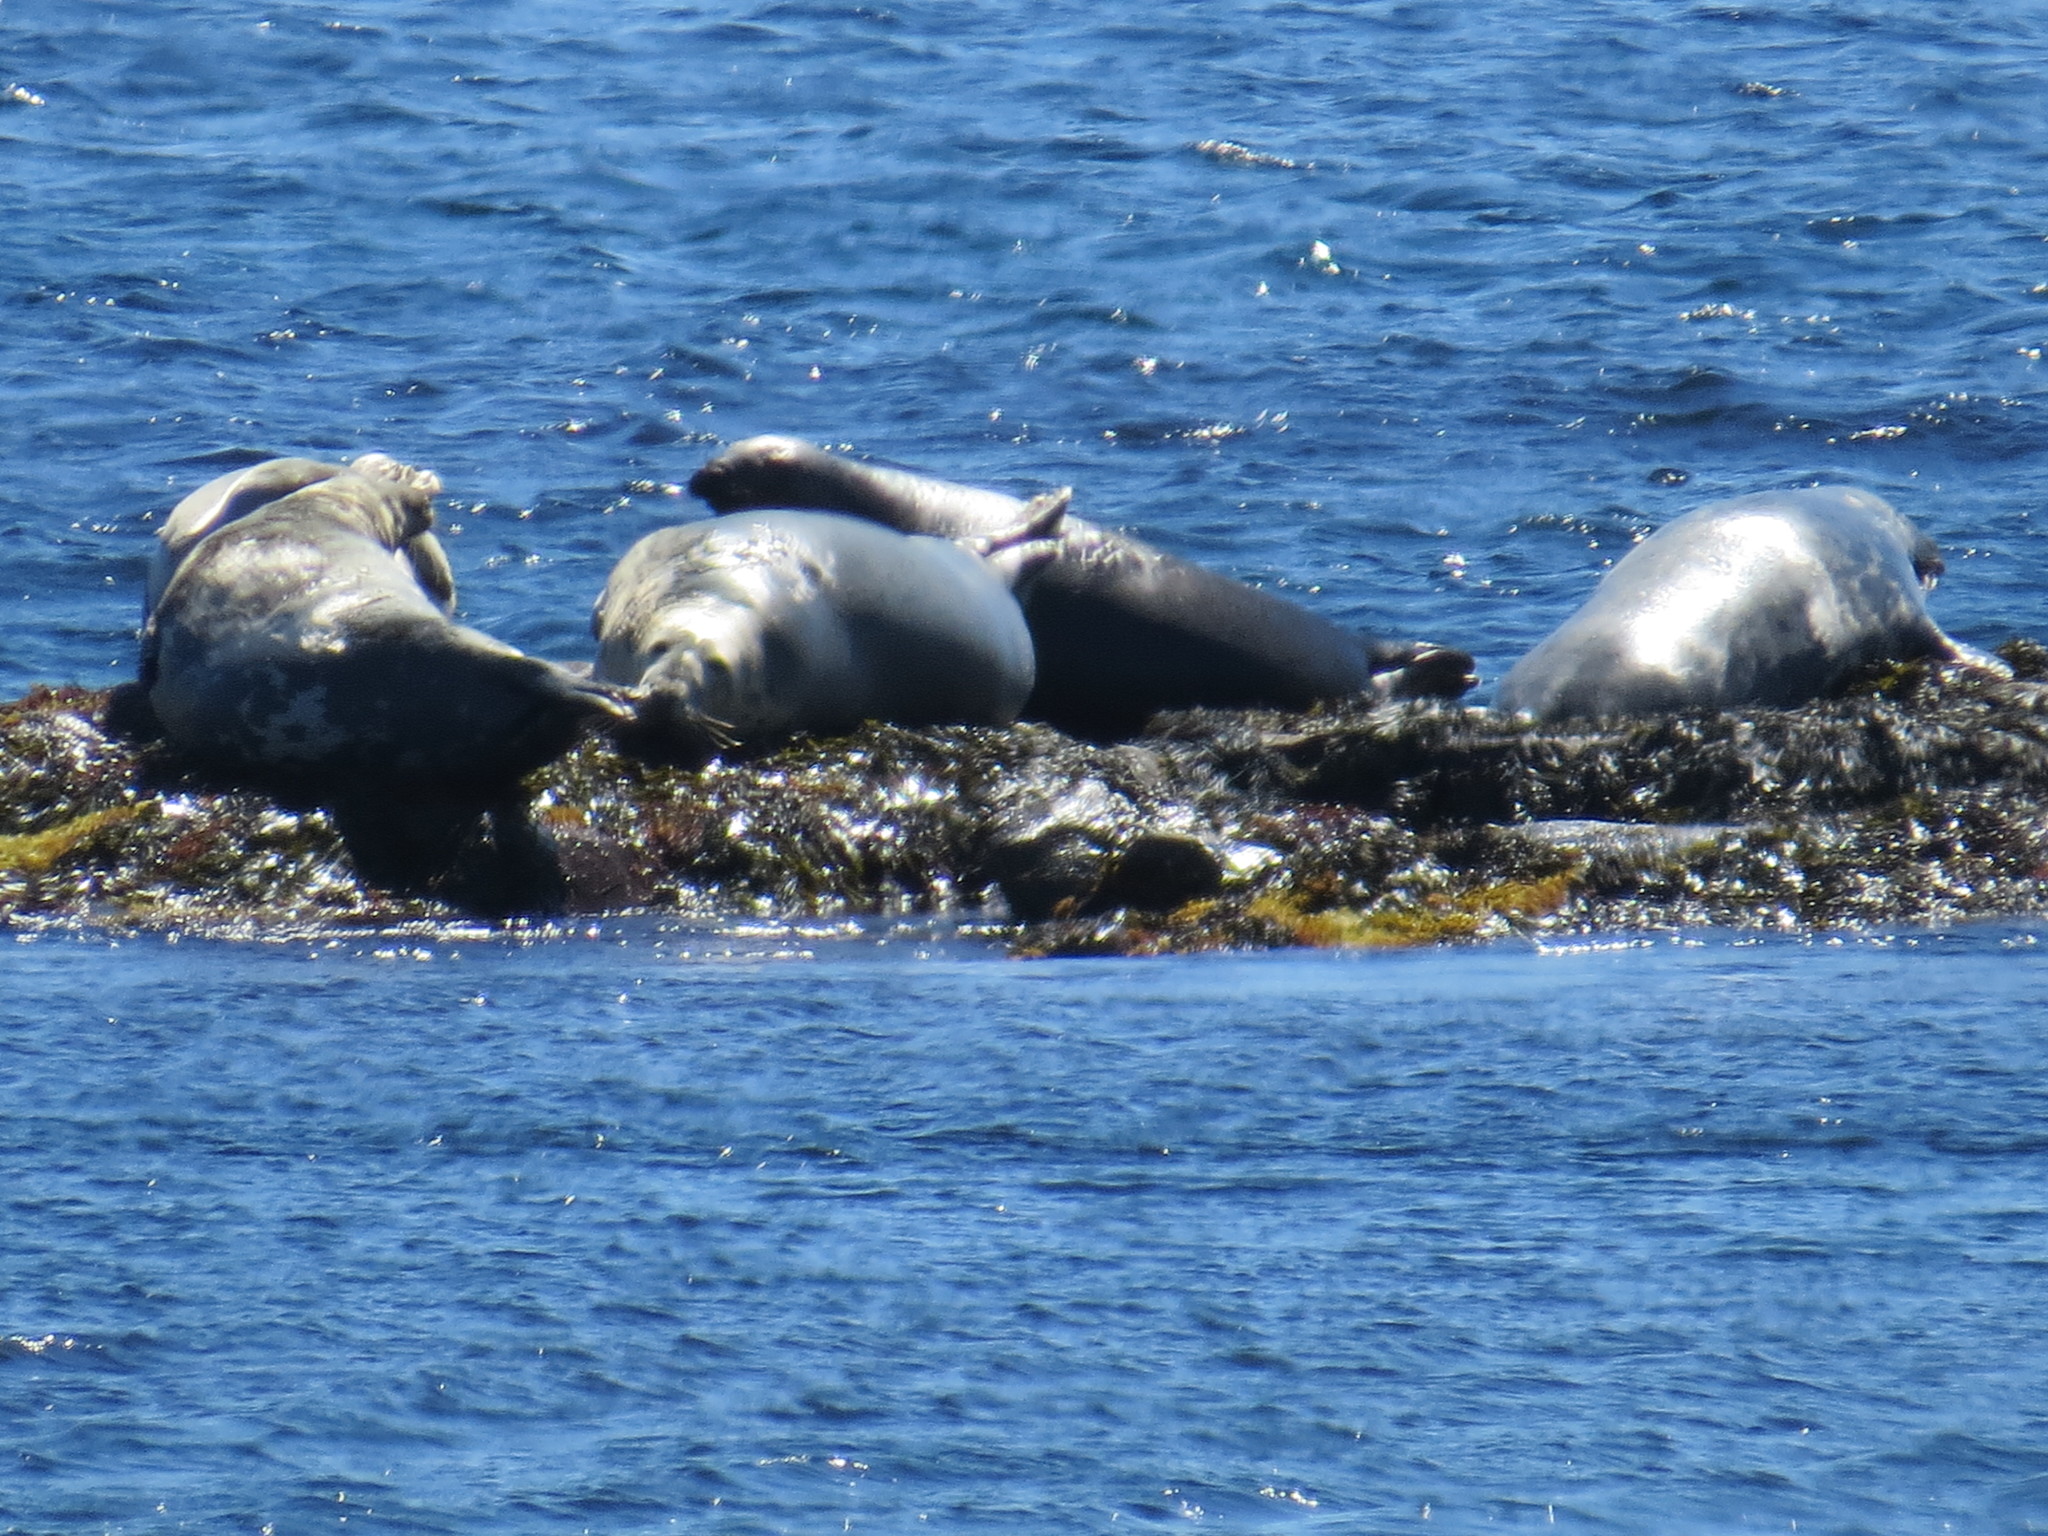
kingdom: Animalia
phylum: Chordata
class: Mammalia
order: Carnivora
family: Phocidae
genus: Halichoerus
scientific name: Halichoerus grypus
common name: Grey seal
